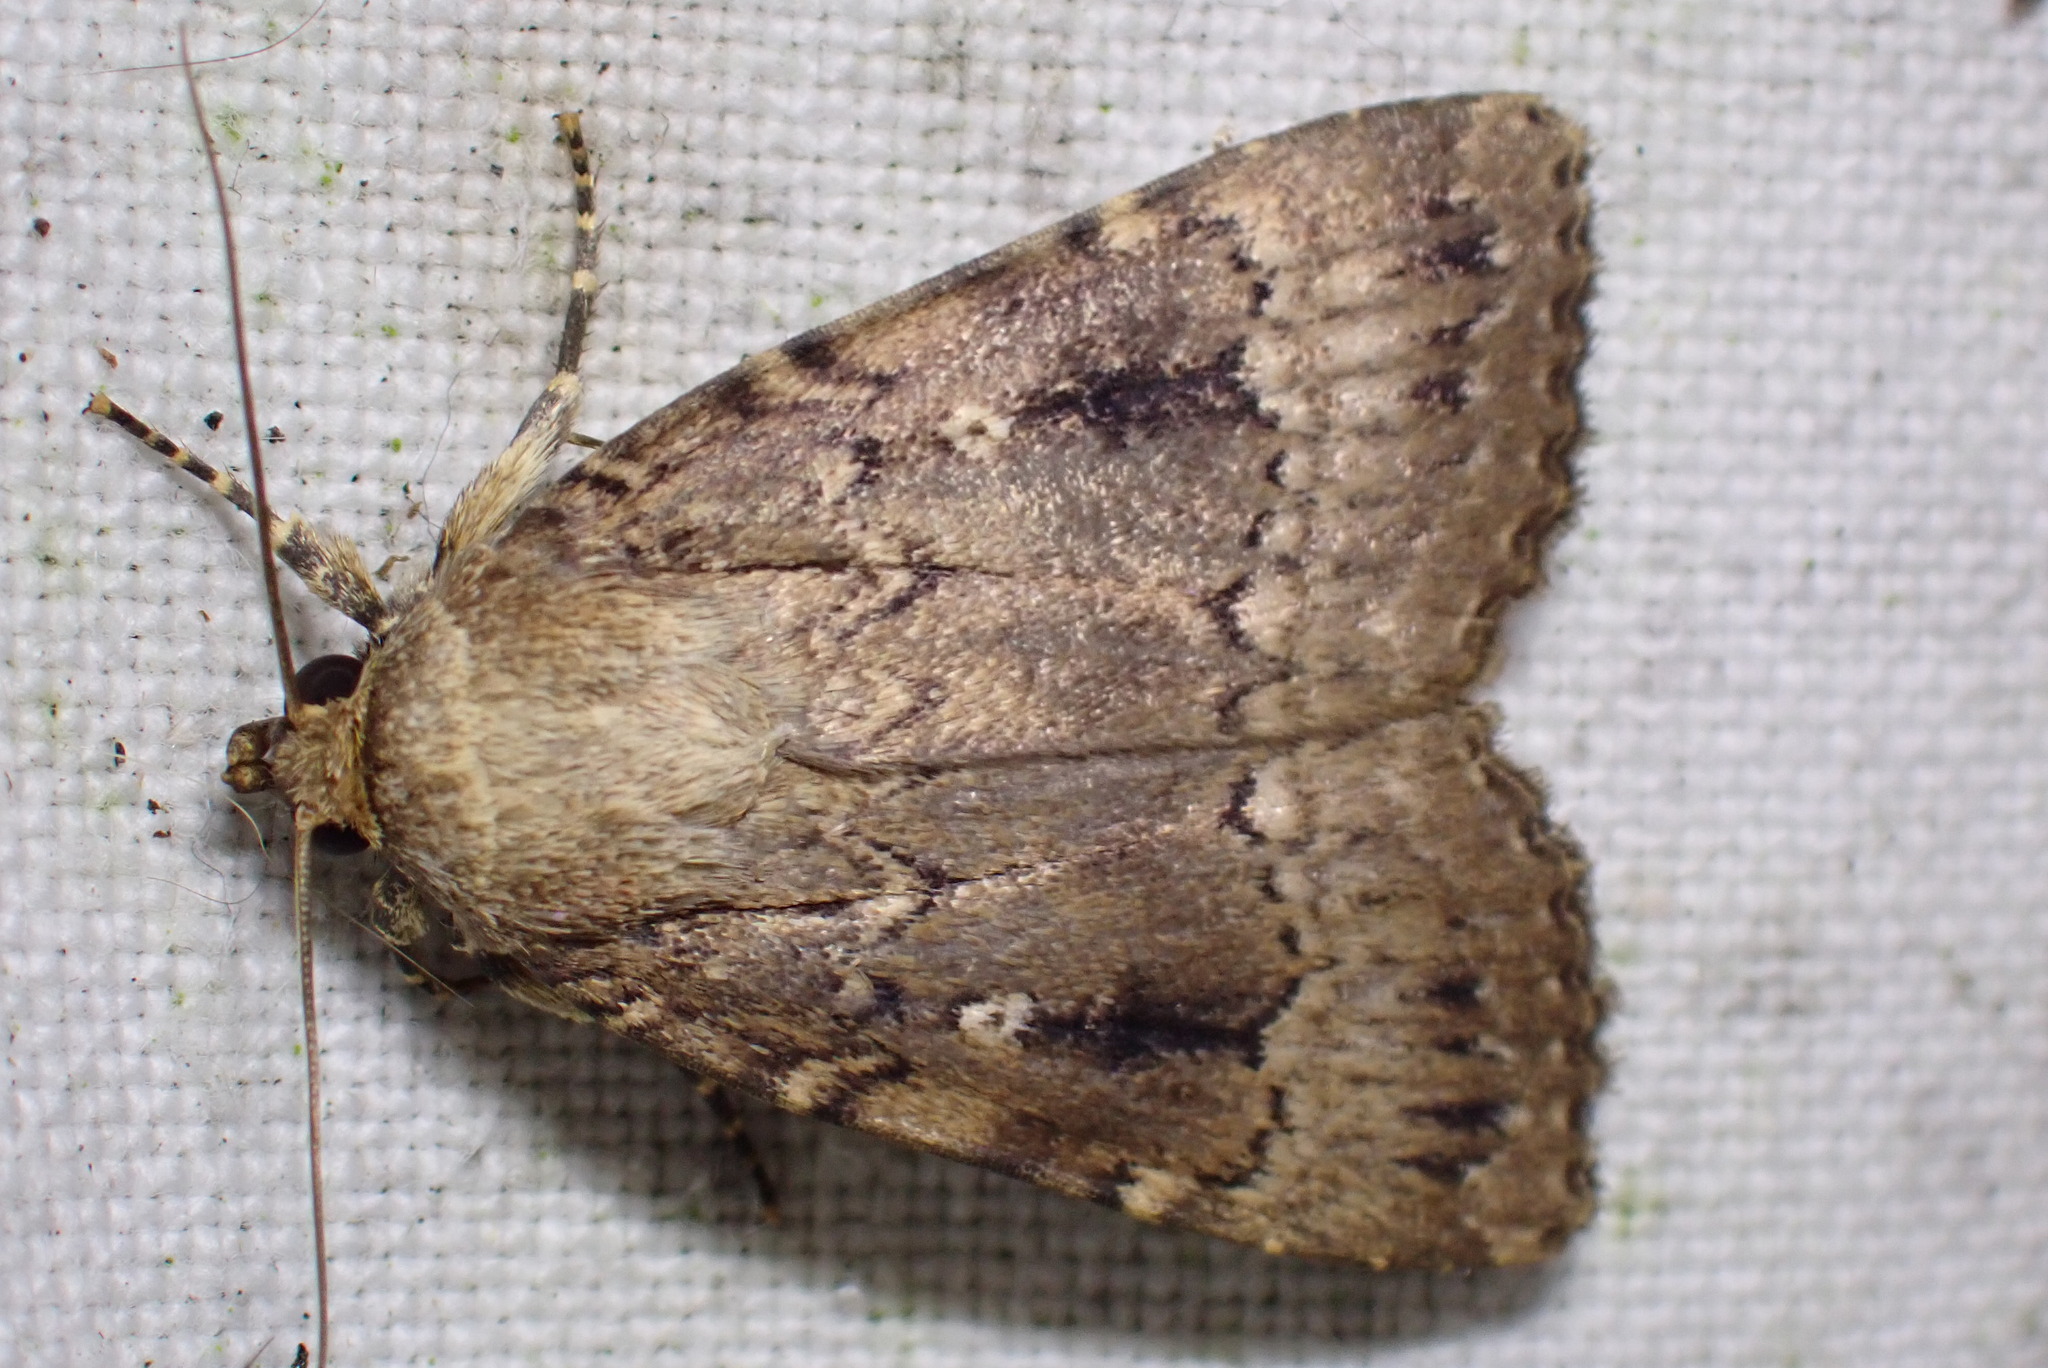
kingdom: Animalia
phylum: Arthropoda
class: Insecta
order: Lepidoptera
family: Noctuidae
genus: Amphipyra
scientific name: Amphipyra pyramidea
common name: Copper underwing
